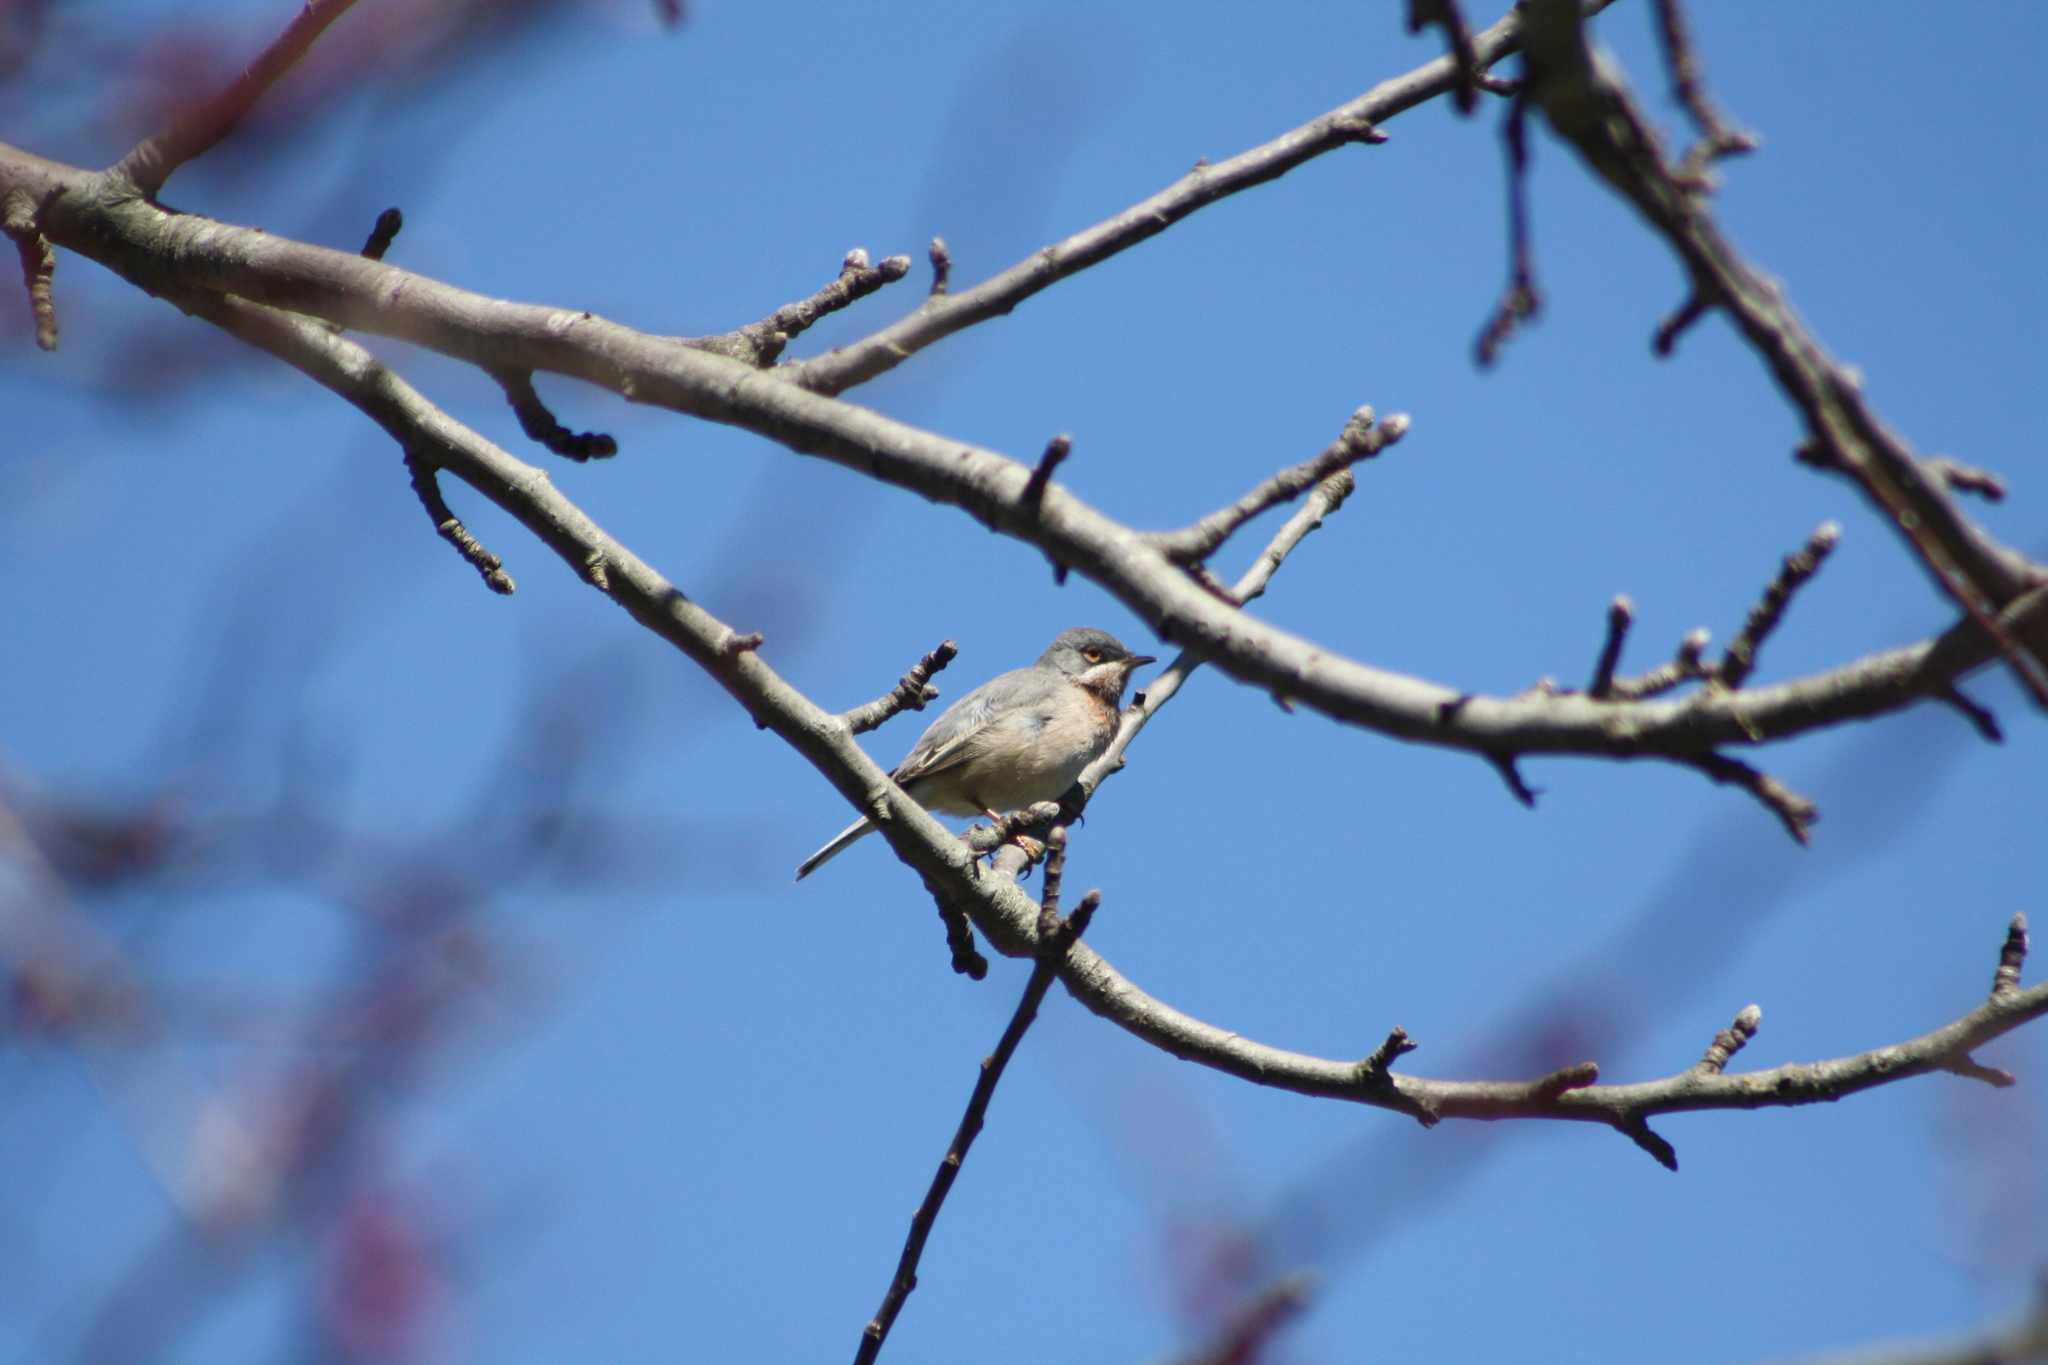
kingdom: Animalia
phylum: Chordata
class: Aves
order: Passeriformes
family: Sylviidae
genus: Curruca
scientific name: Curruca cantillans
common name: Subalpine warbler
